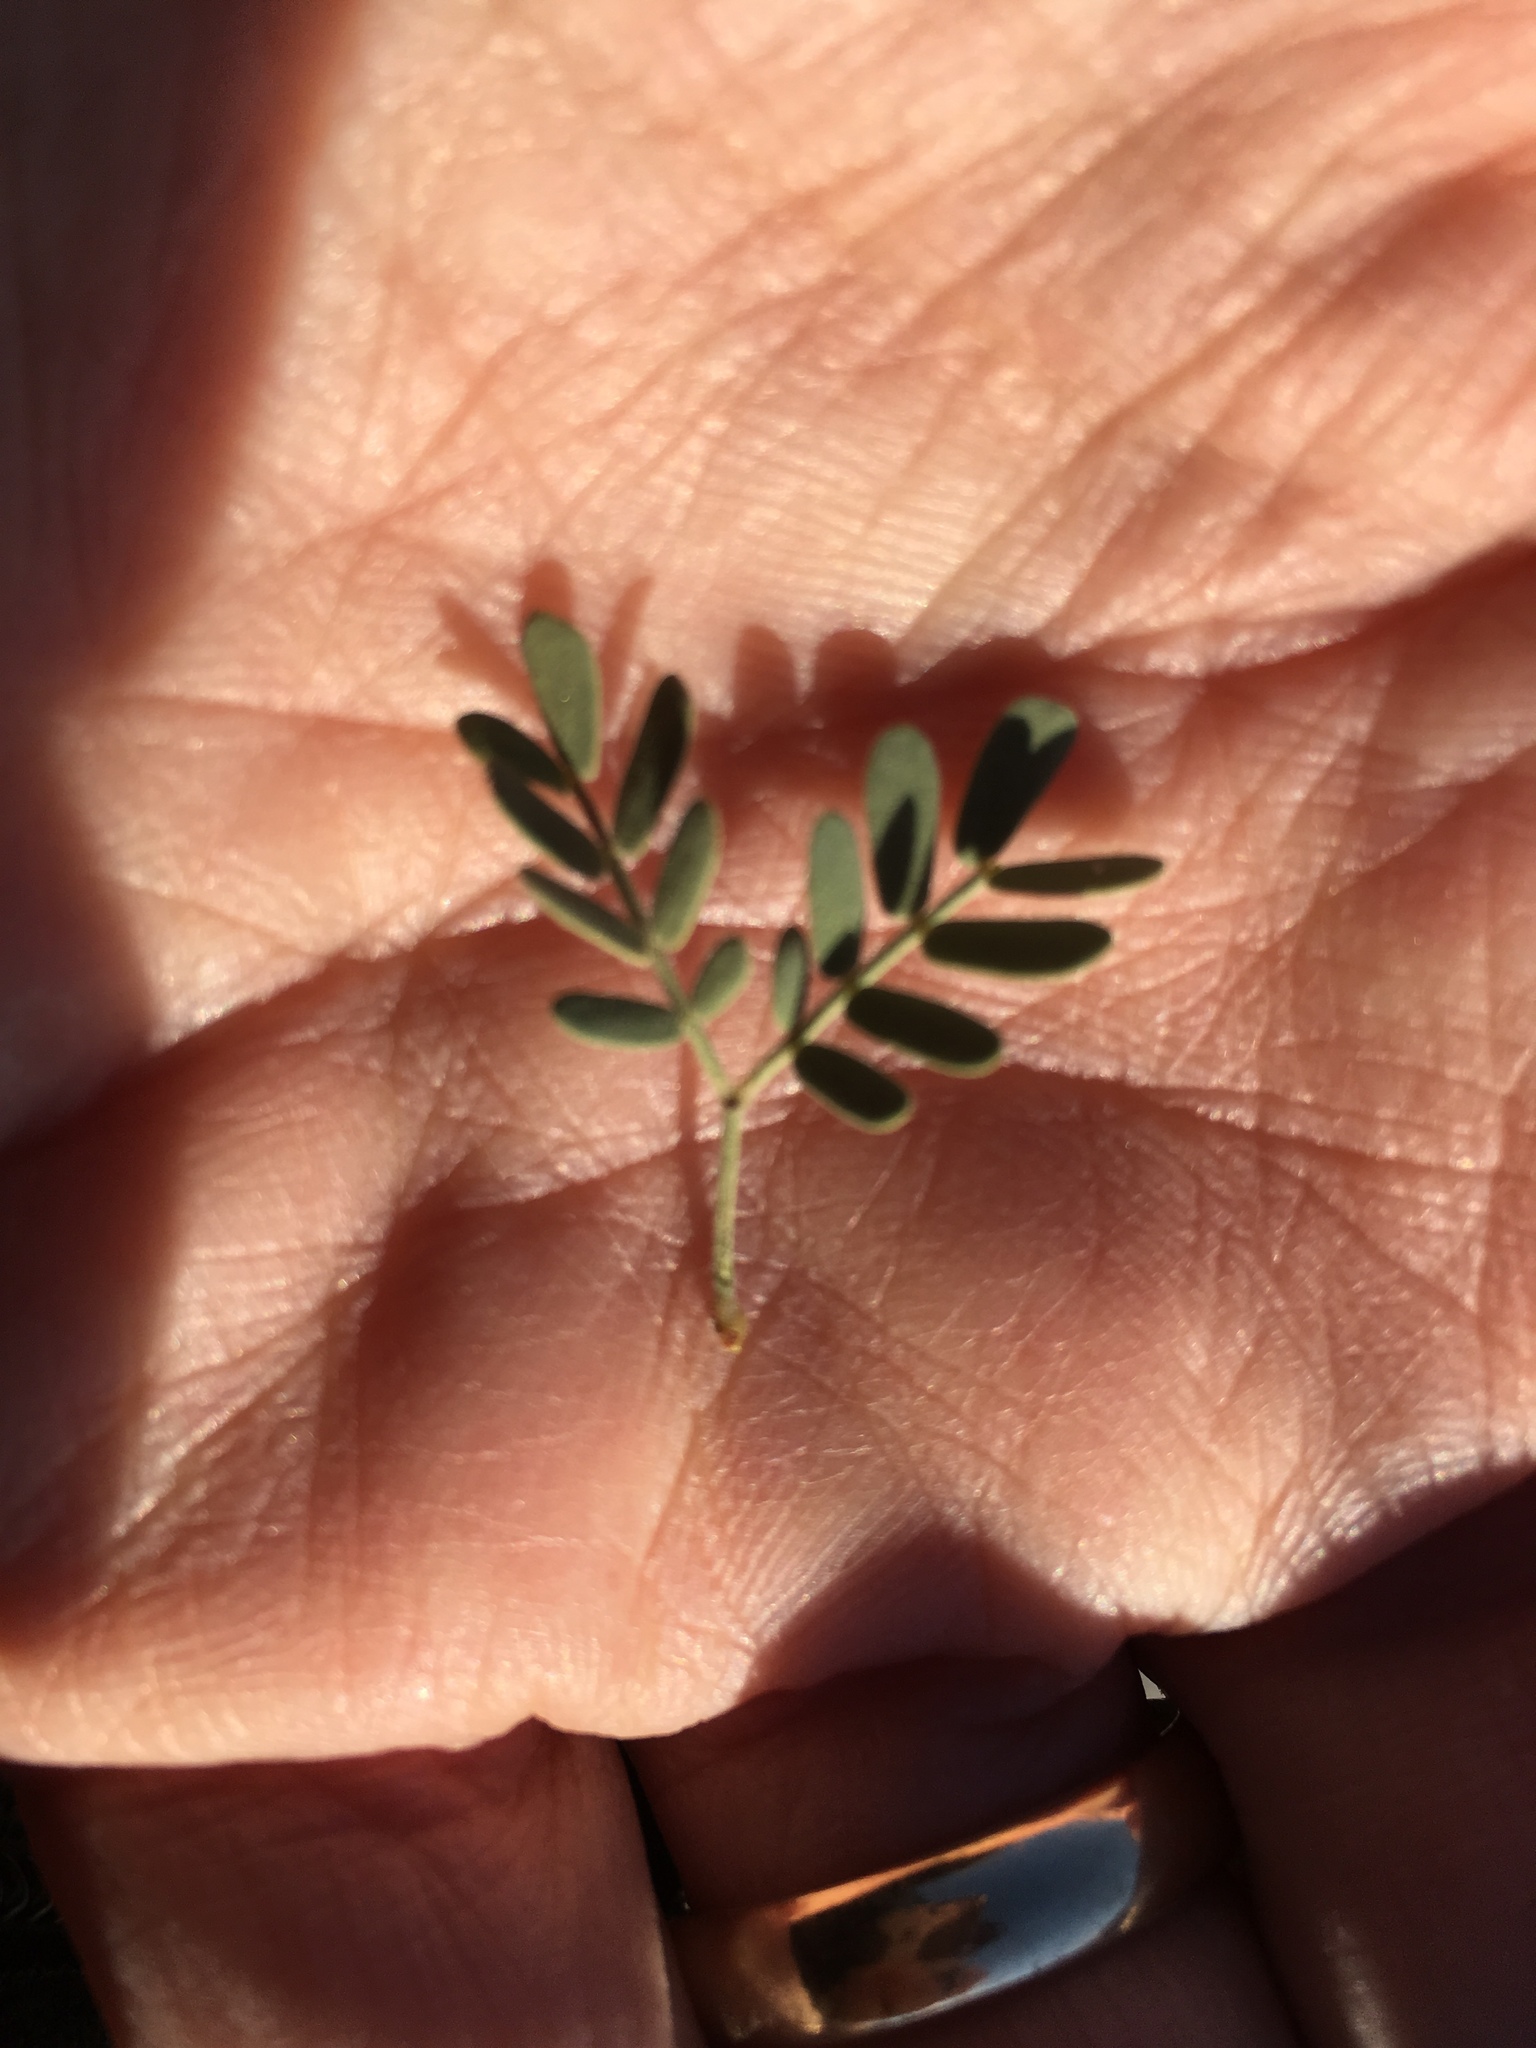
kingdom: Plantae
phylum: Tracheophyta
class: Magnoliopsida
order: Fabales
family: Fabaceae
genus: Senegalia
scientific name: Senegalia greggii
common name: Texas-mimosa
